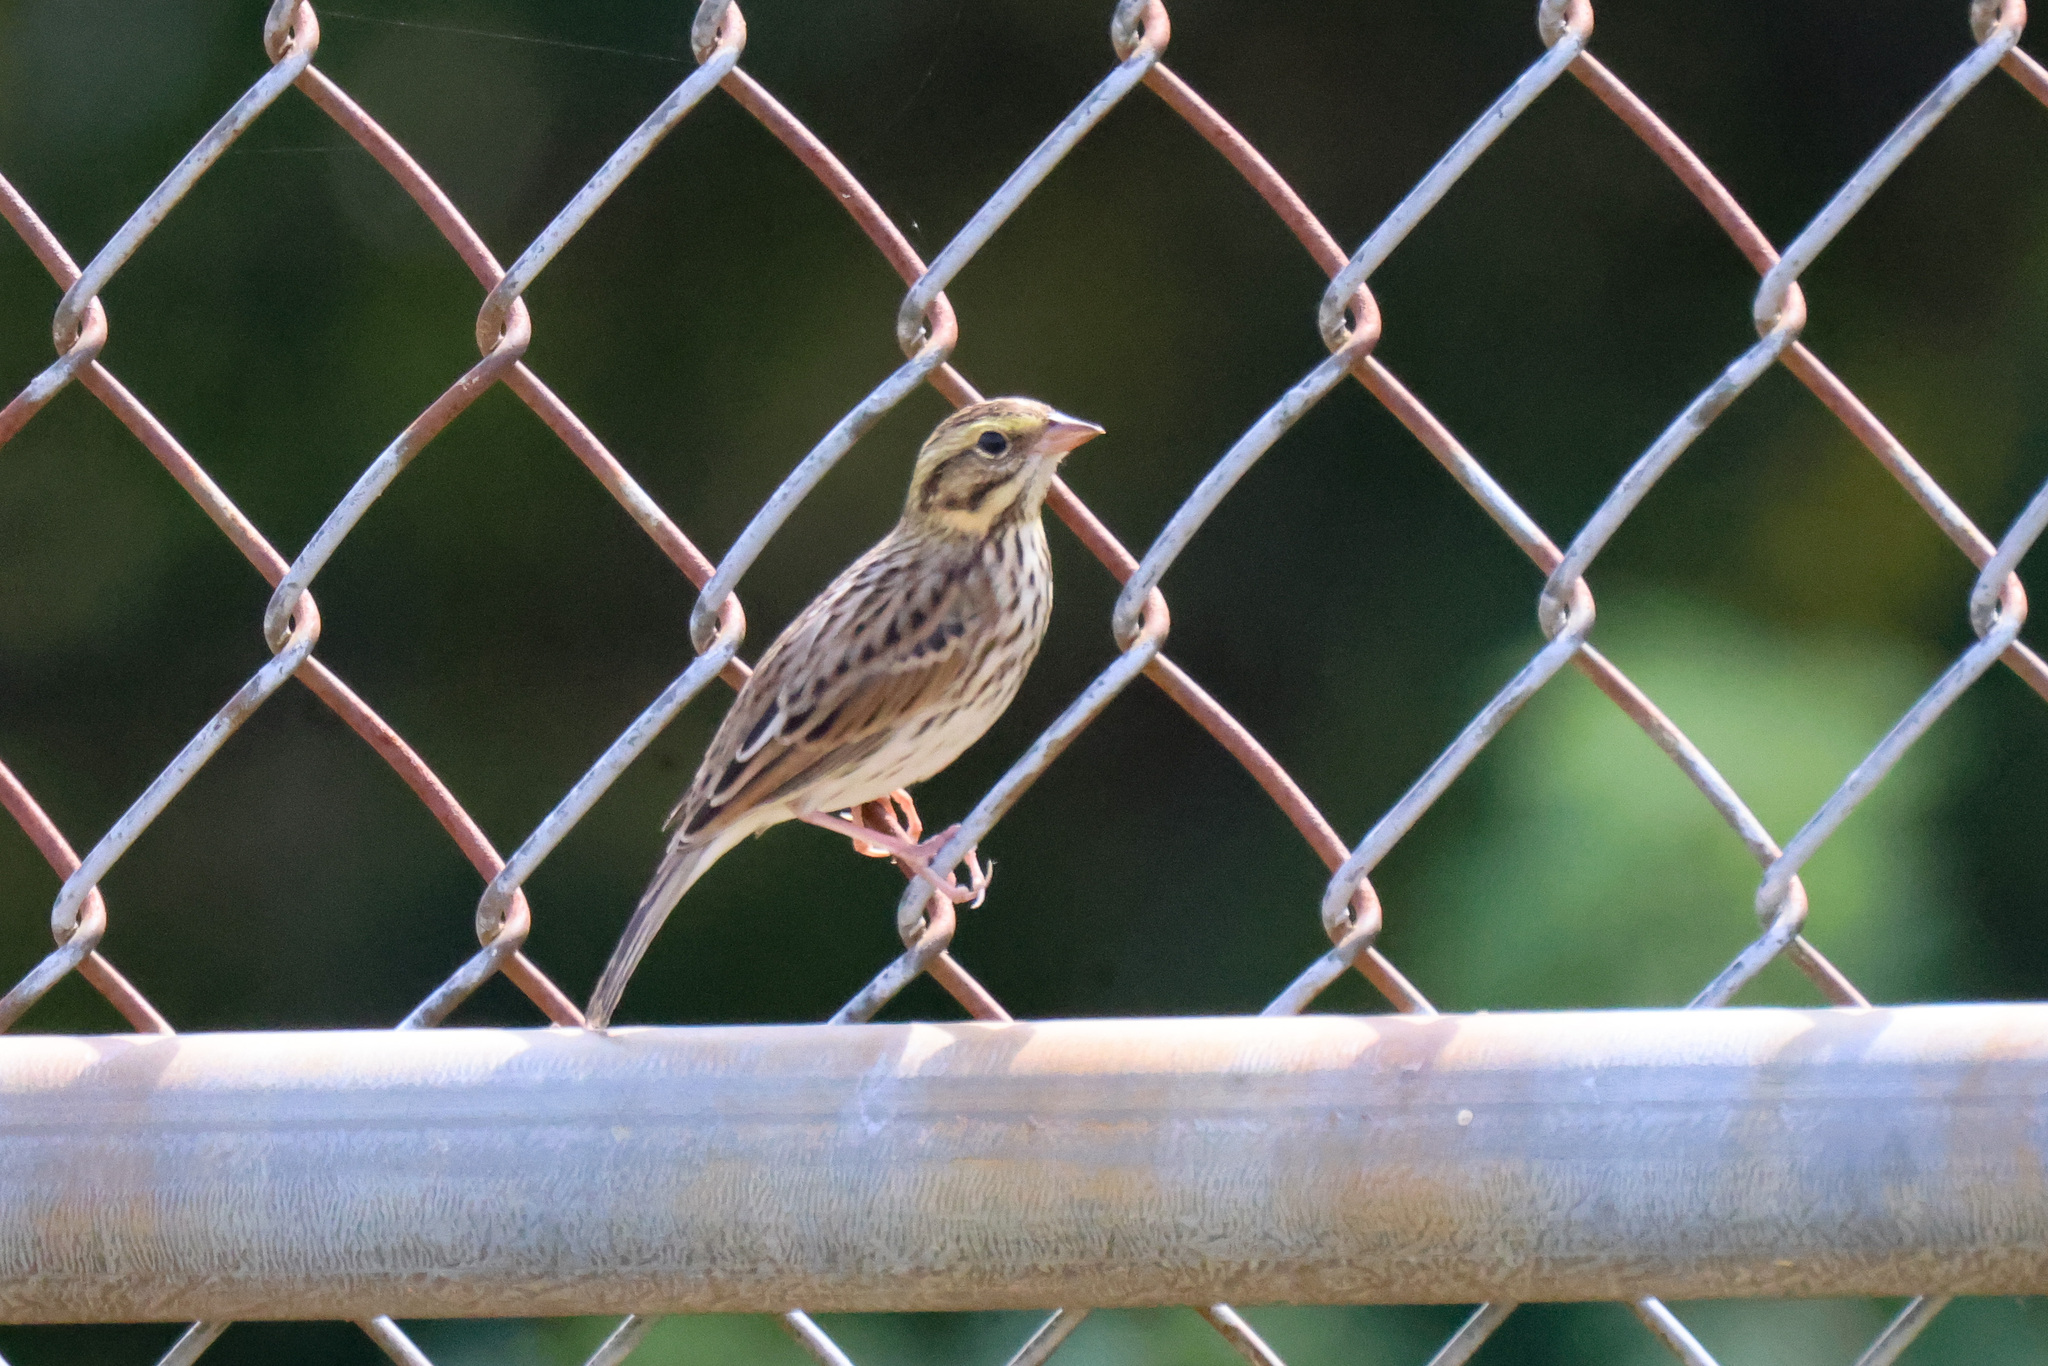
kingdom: Animalia
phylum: Chordata
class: Aves
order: Passeriformes
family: Passerellidae
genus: Passerculus
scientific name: Passerculus sandwichensis
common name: Savannah sparrow
